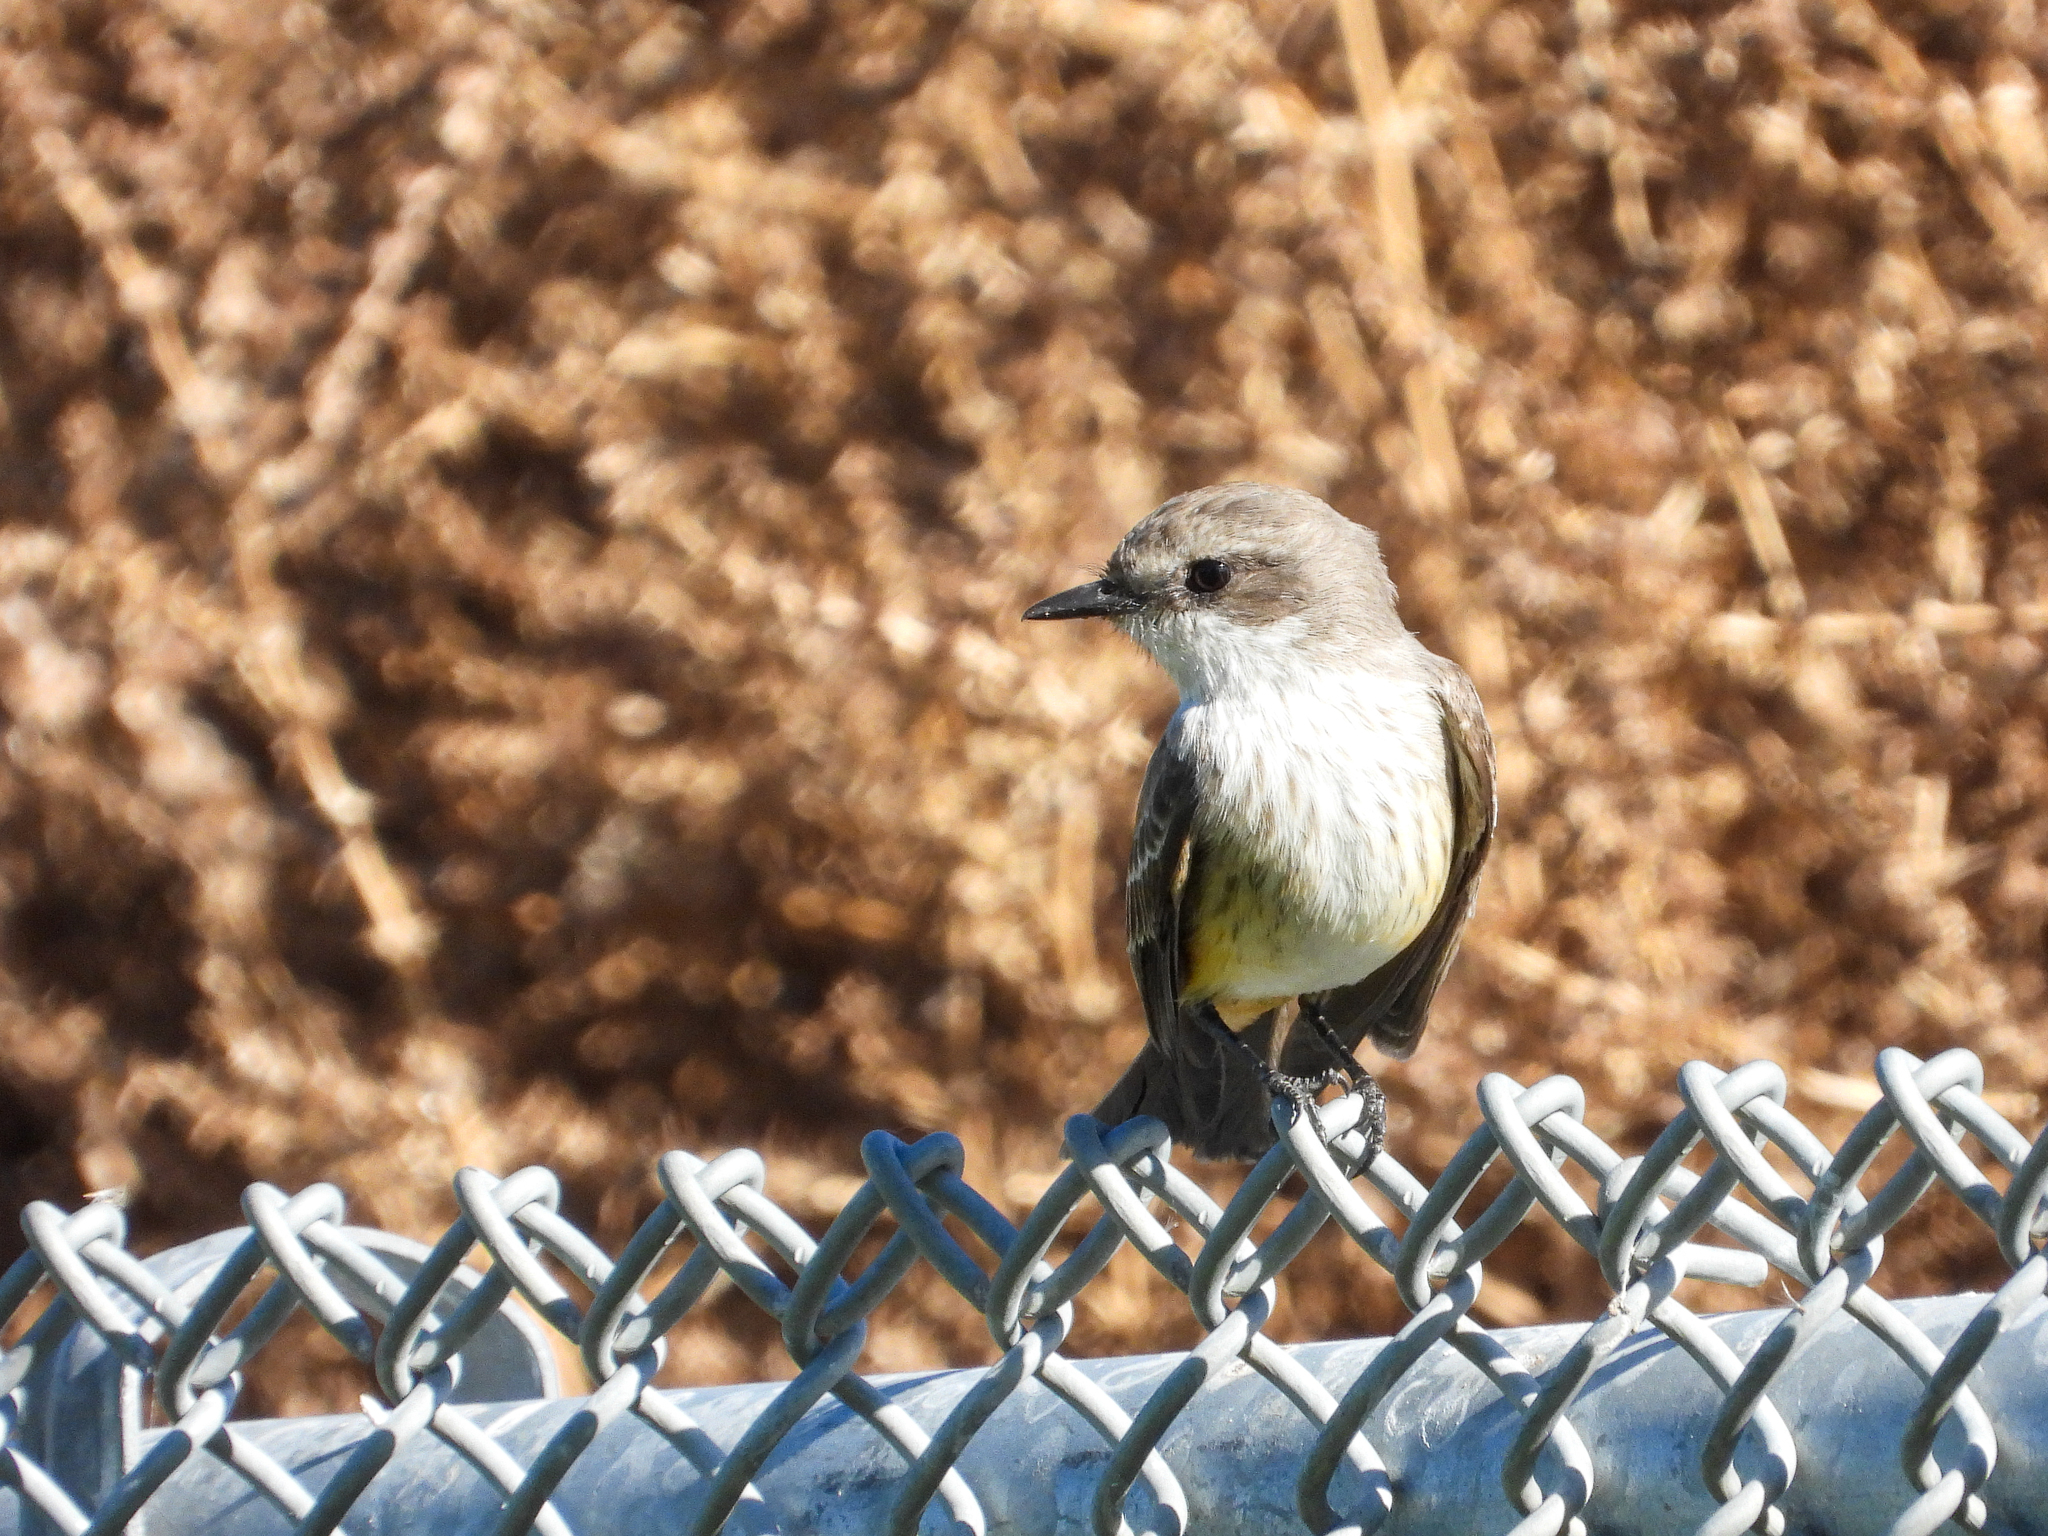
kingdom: Animalia
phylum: Chordata
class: Aves
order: Passeriformes
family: Tyrannidae
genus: Pyrocephalus
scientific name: Pyrocephalus rubinus
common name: Vermilion flycatcher
